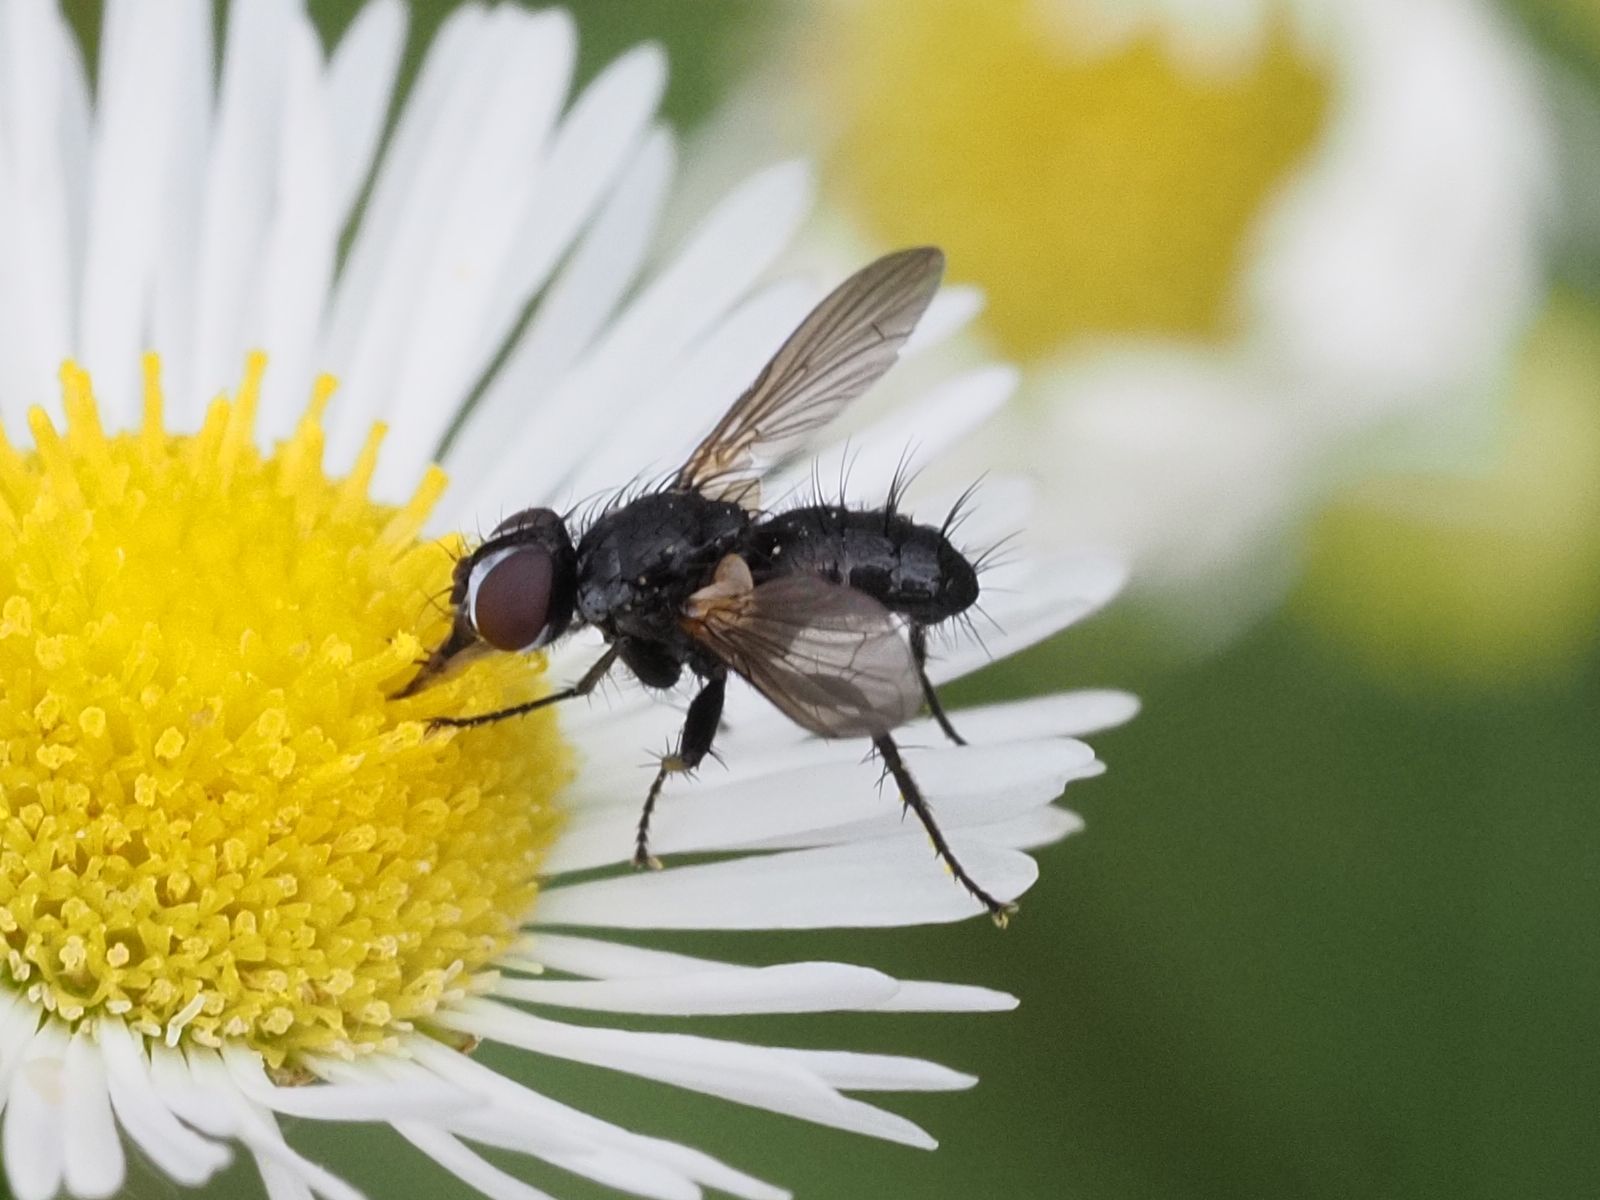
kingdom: Animalia
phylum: Arthropoda
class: Insecta
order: Diptera
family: Tachinidae
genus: Phania
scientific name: Phania funesta
